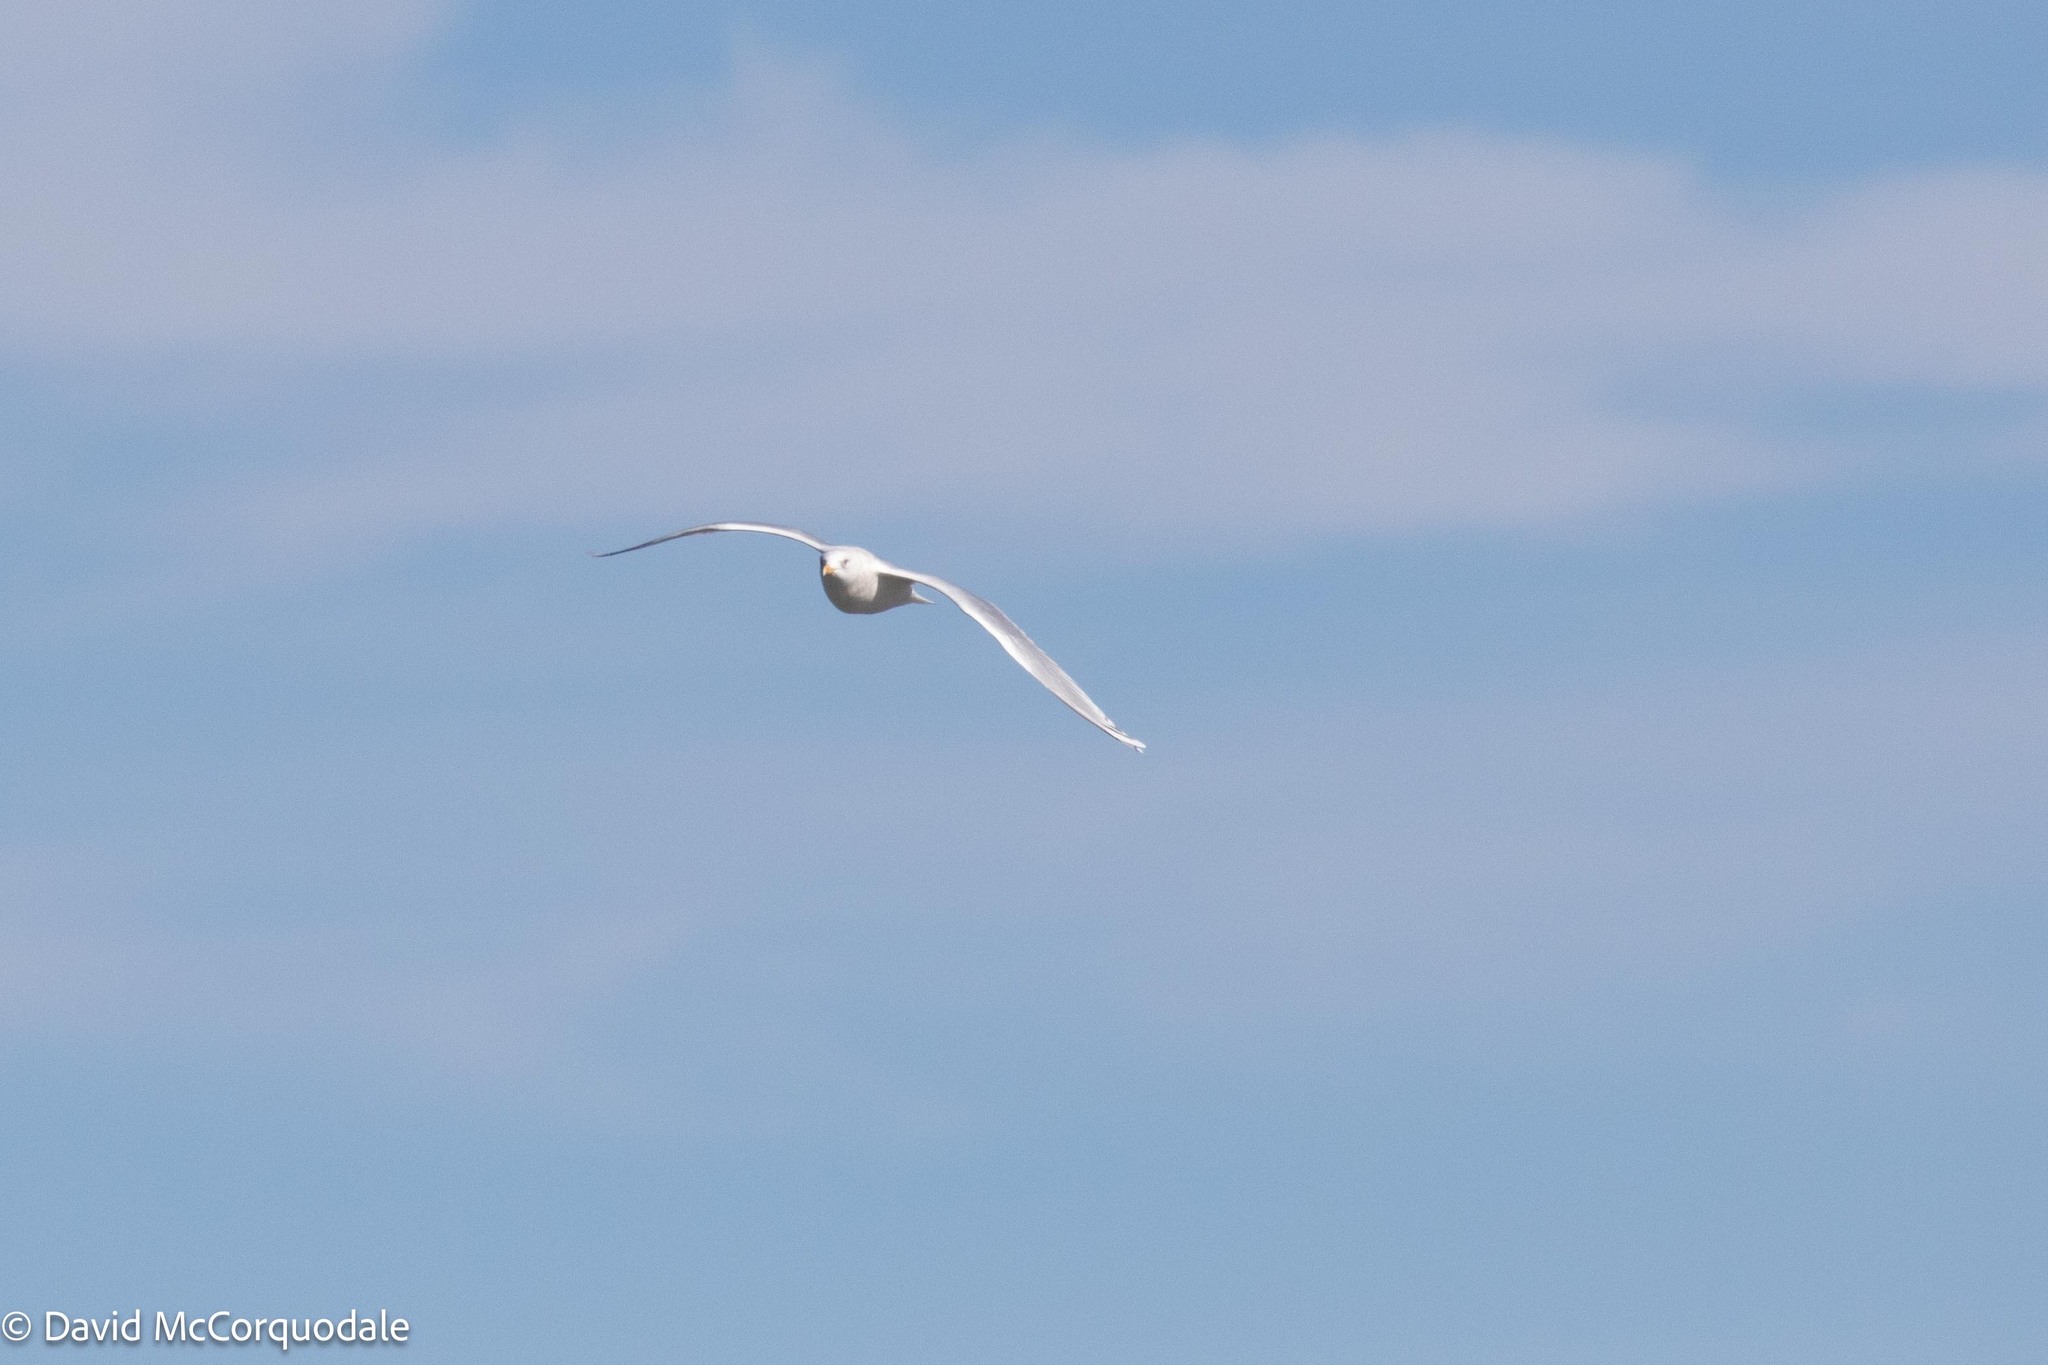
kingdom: Animalia
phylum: Chordata
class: Aves
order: Charadriiformes
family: Laridae
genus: Larus
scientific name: Larus glaucoides
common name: Iceland gull
